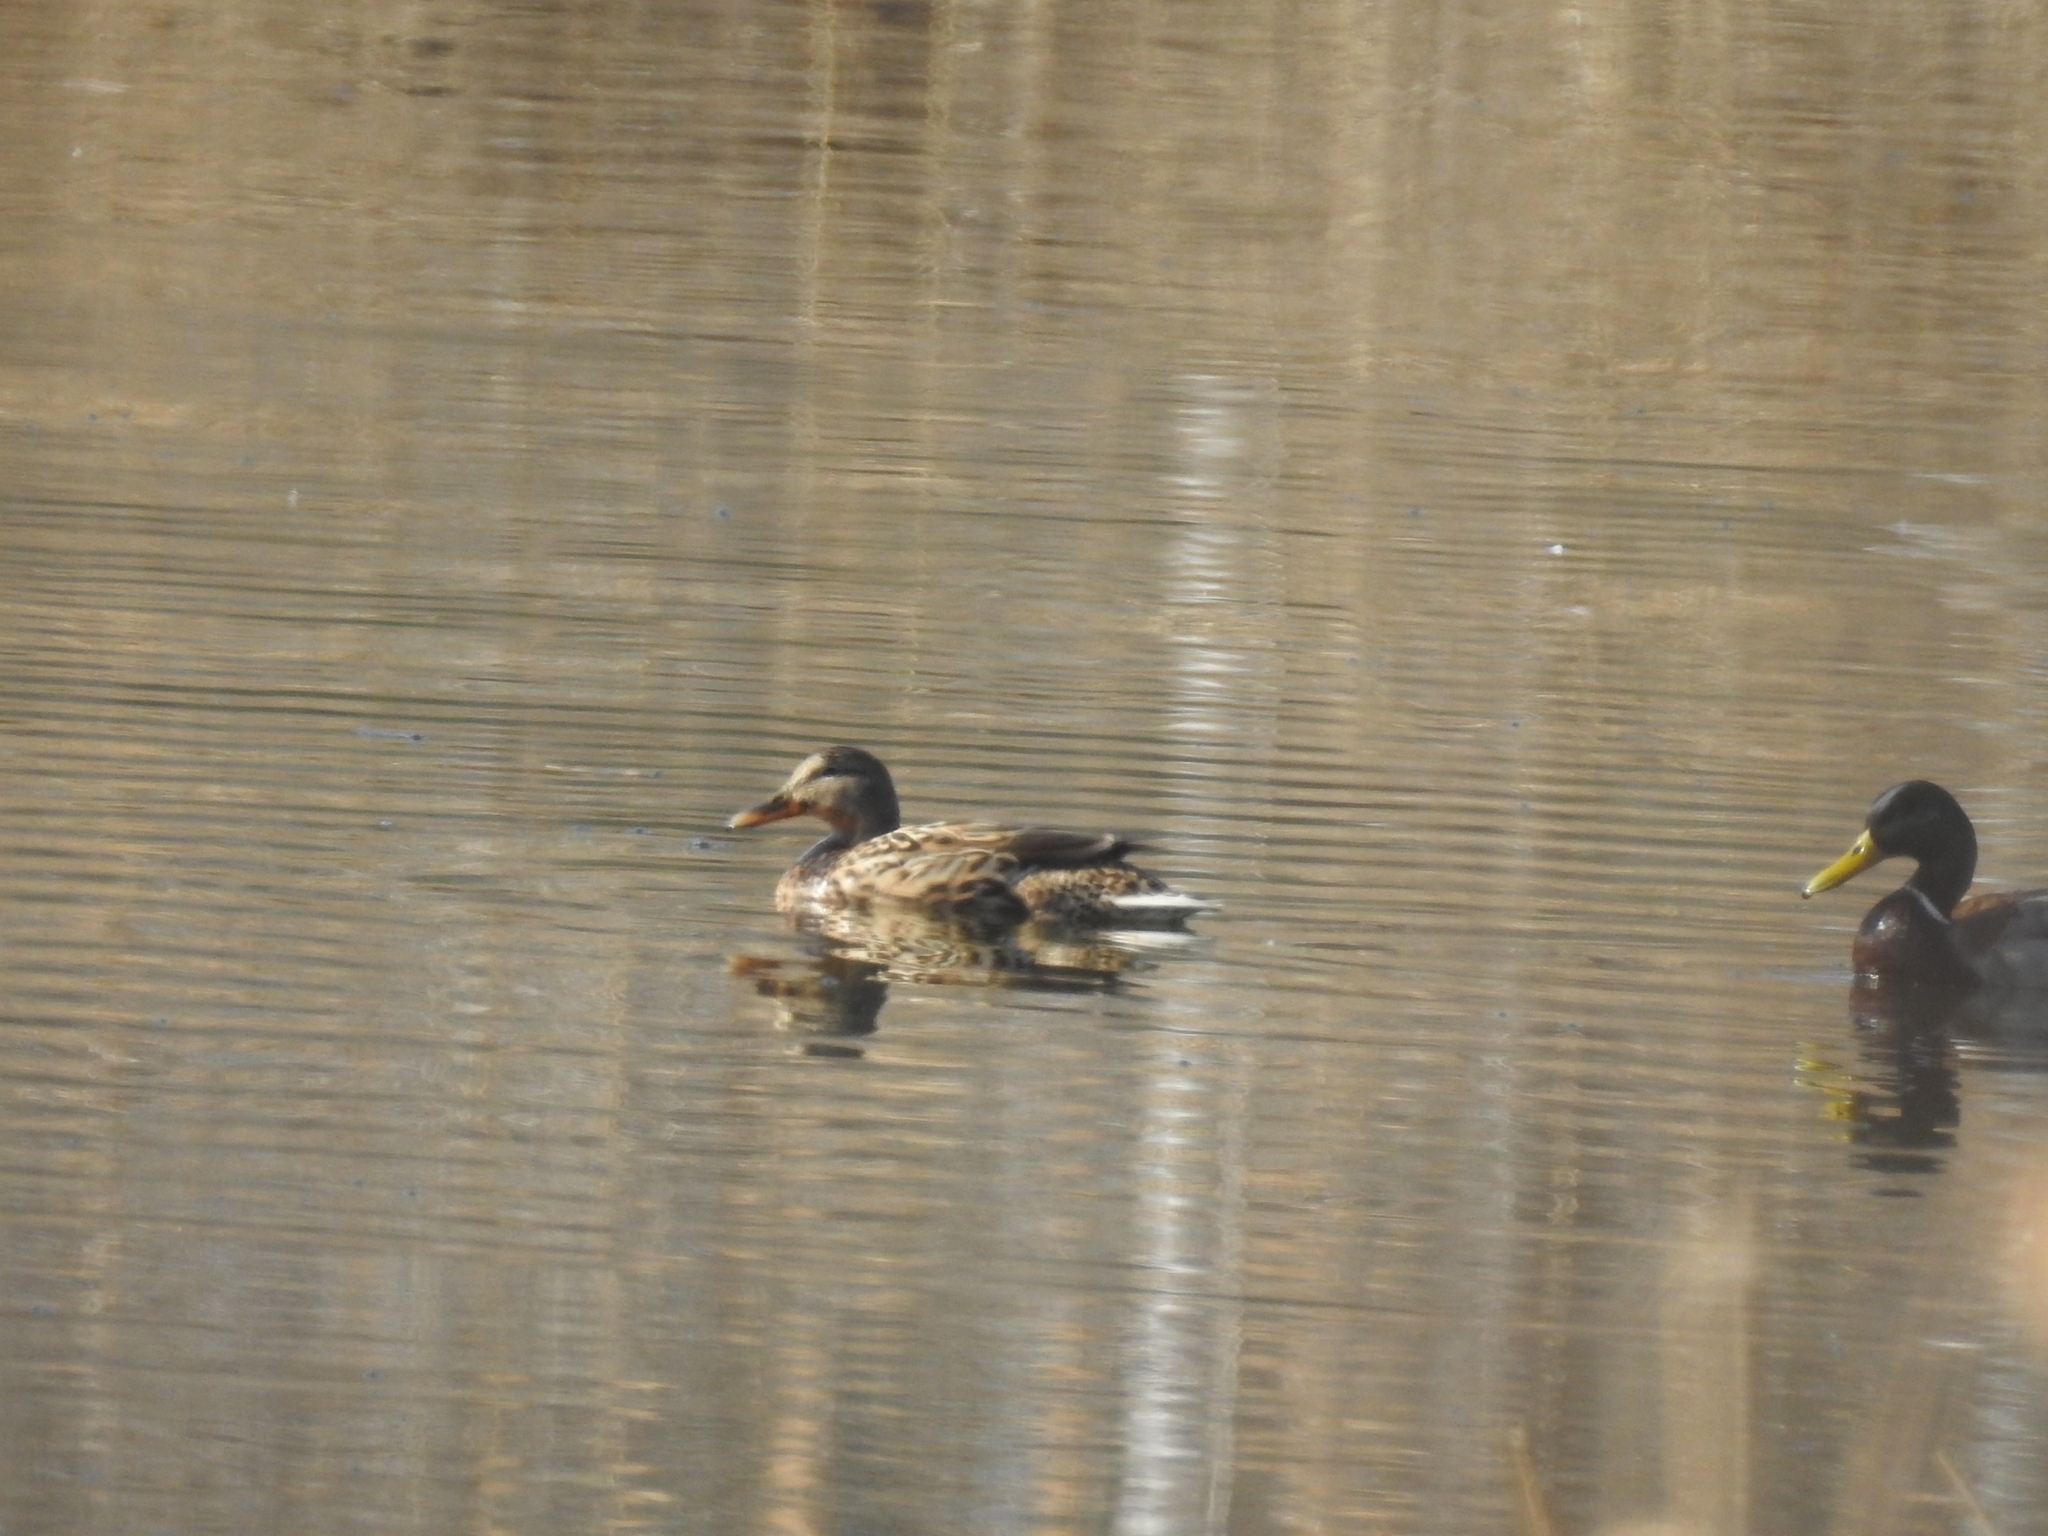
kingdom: Animalia
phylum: Chordata
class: Aves
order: Anseriformes
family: Anatidae
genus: Anas
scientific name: Anas platyrhynchos
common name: Mallard
